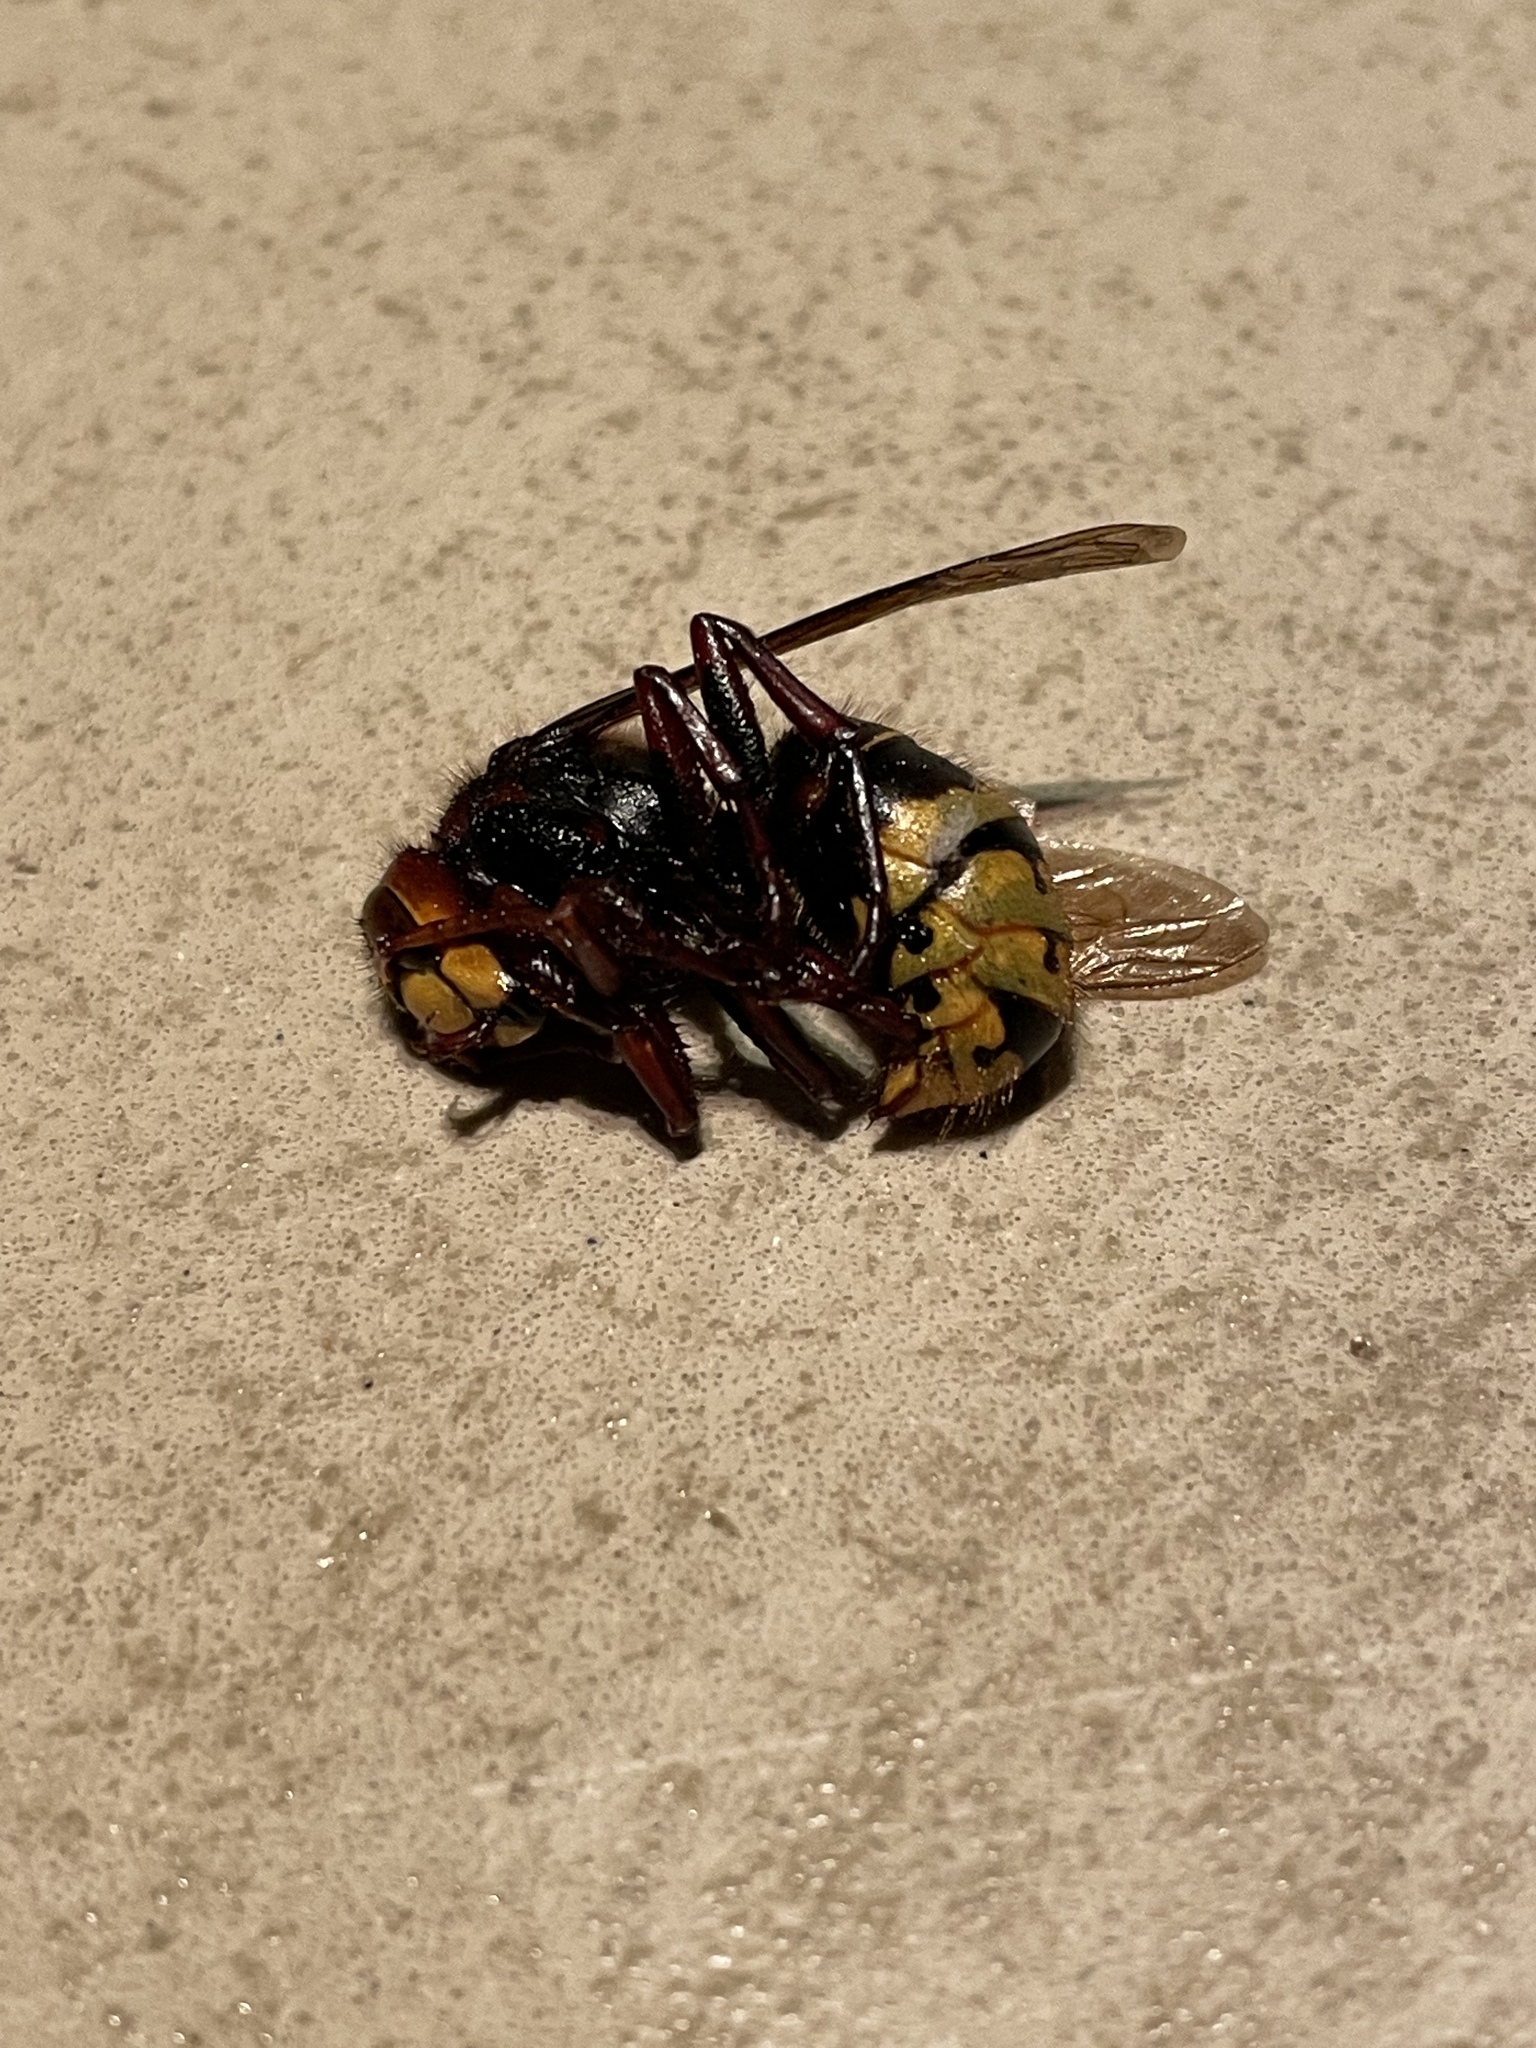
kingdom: Animalia
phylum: Arthropoda
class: Insecta
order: Hymenoptera
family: Vespidae
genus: Vespa
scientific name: Vespa crabro
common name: Hornet
